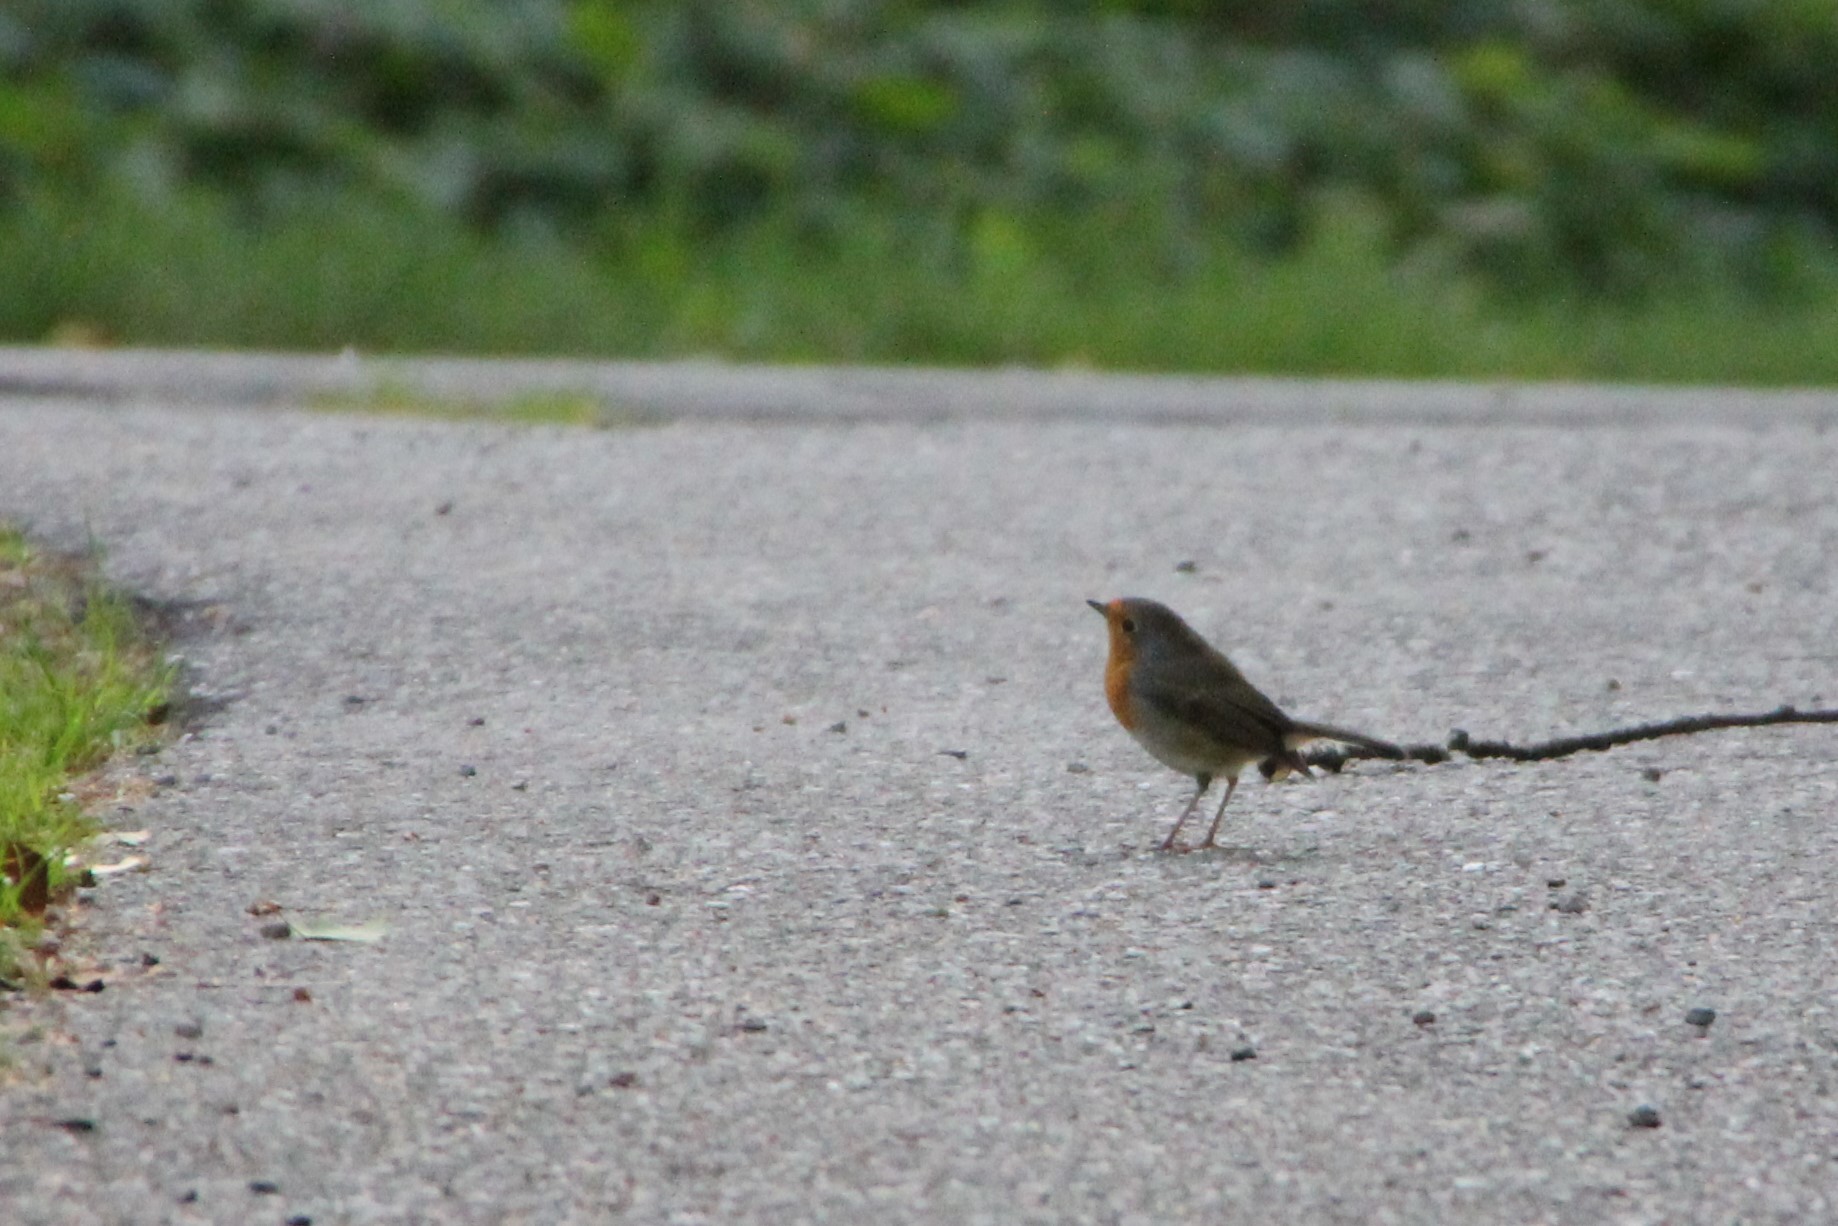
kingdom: Animalia
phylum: Chordata
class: Aves
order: Passeriformes
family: Muscicapidae
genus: Erithacus
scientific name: Erithacus rubecula
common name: European robin
